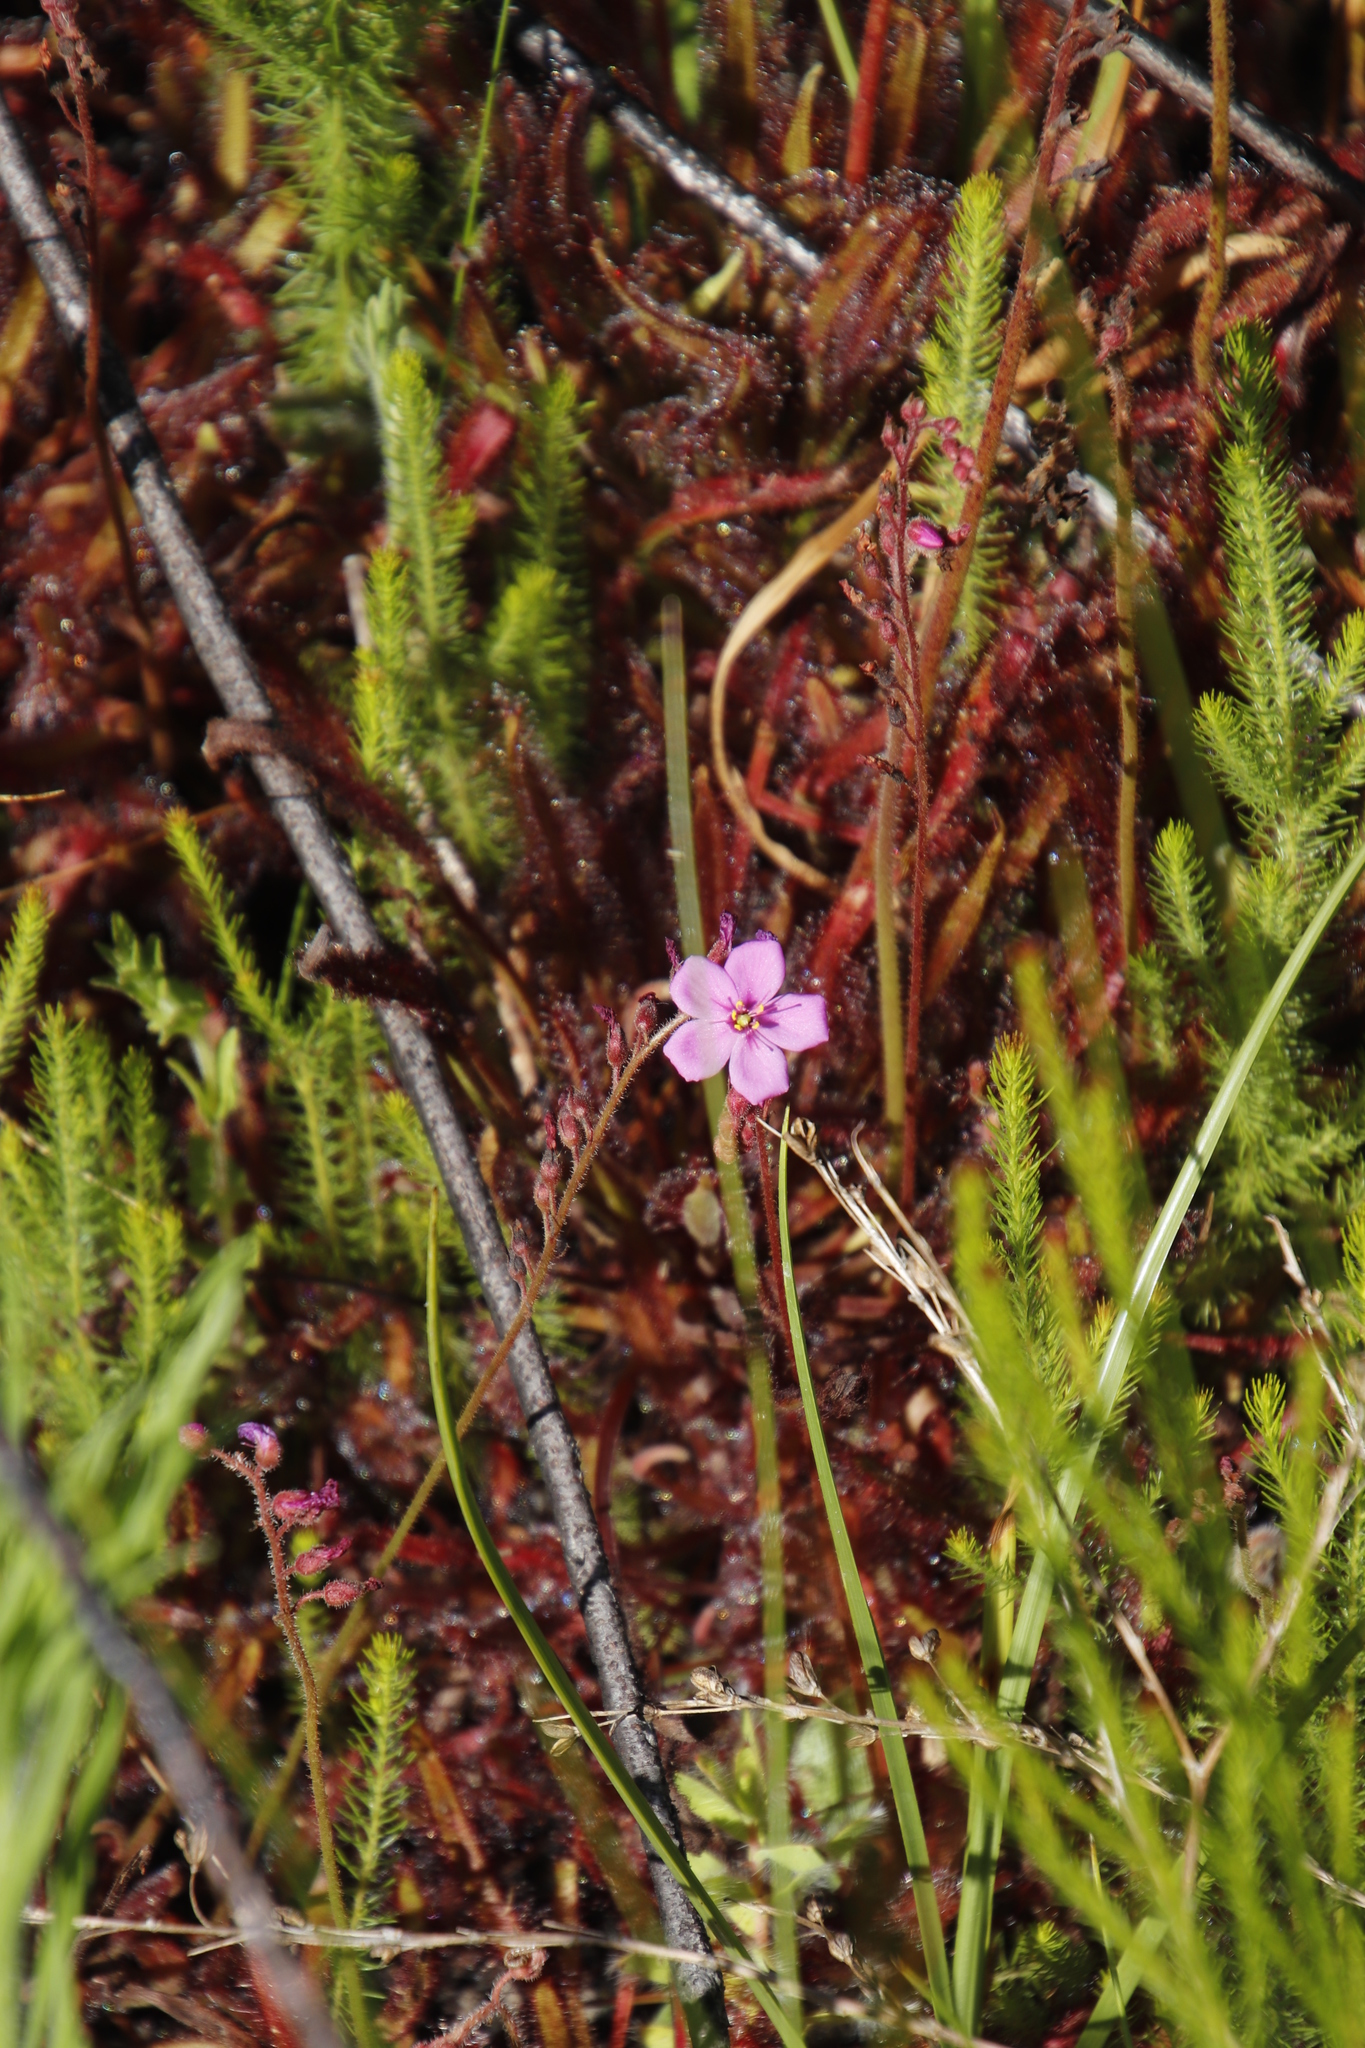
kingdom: Plantae
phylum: Tracheophyta
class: Magnoliopsida
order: Caryophyllales
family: Droseraceae
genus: Drosera
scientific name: Drosera capensis
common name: Cape sundew
